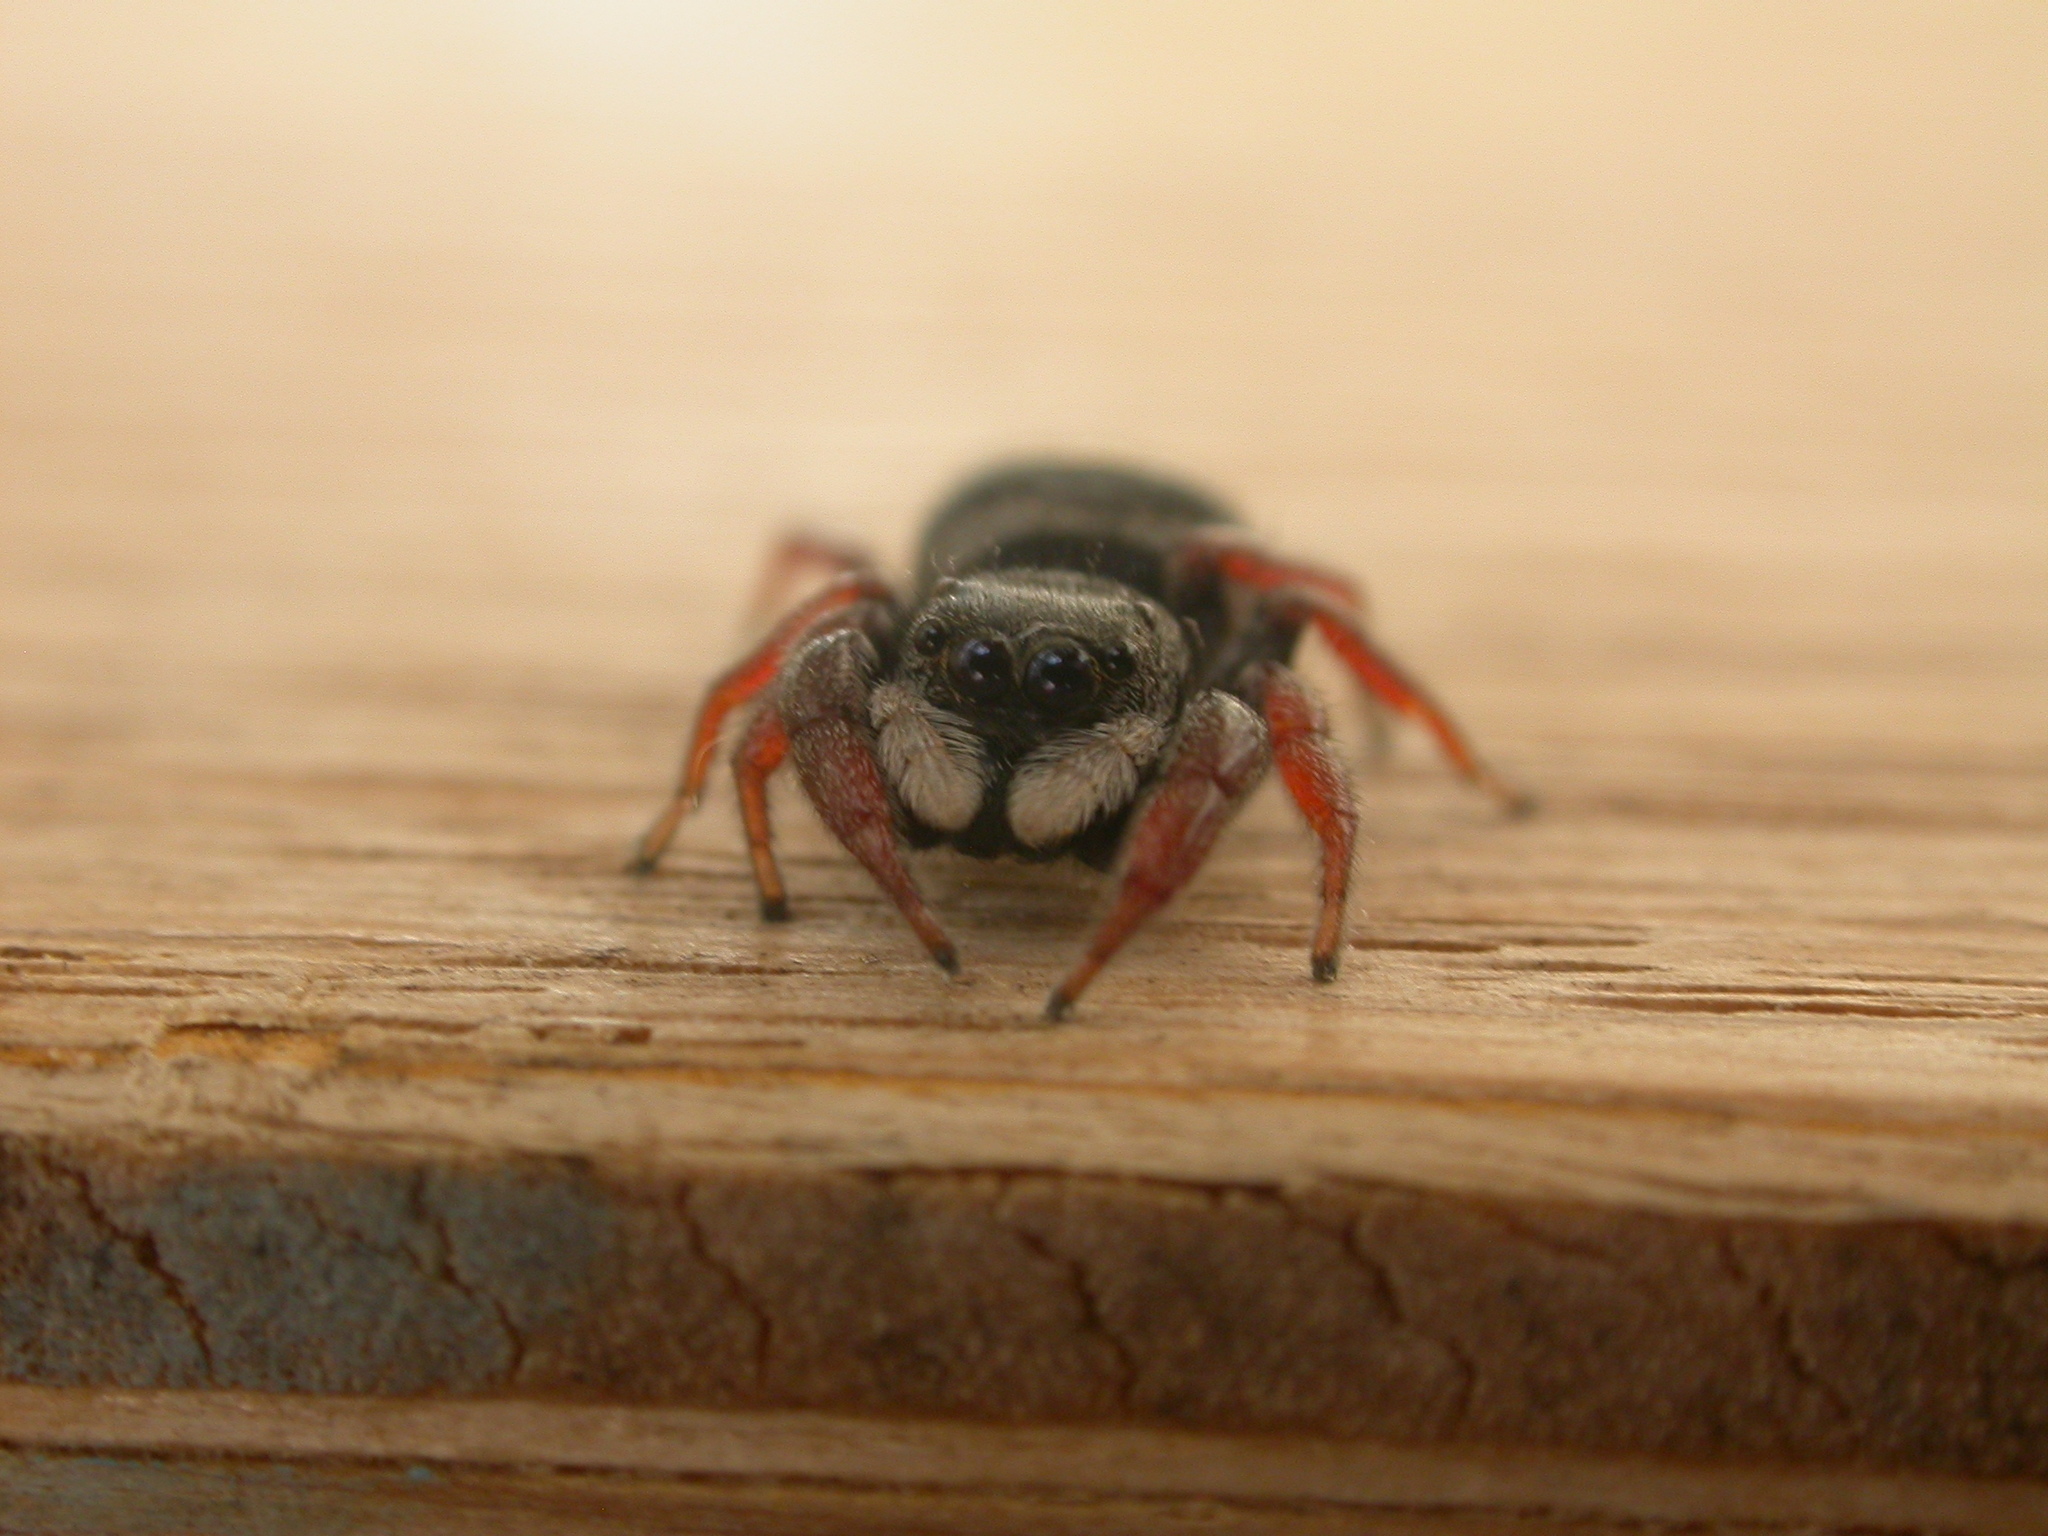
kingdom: Animalia
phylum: Arthropoda
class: Arachnida
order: Araneae
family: Salticidae
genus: Apricia
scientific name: Apricia jovialis
